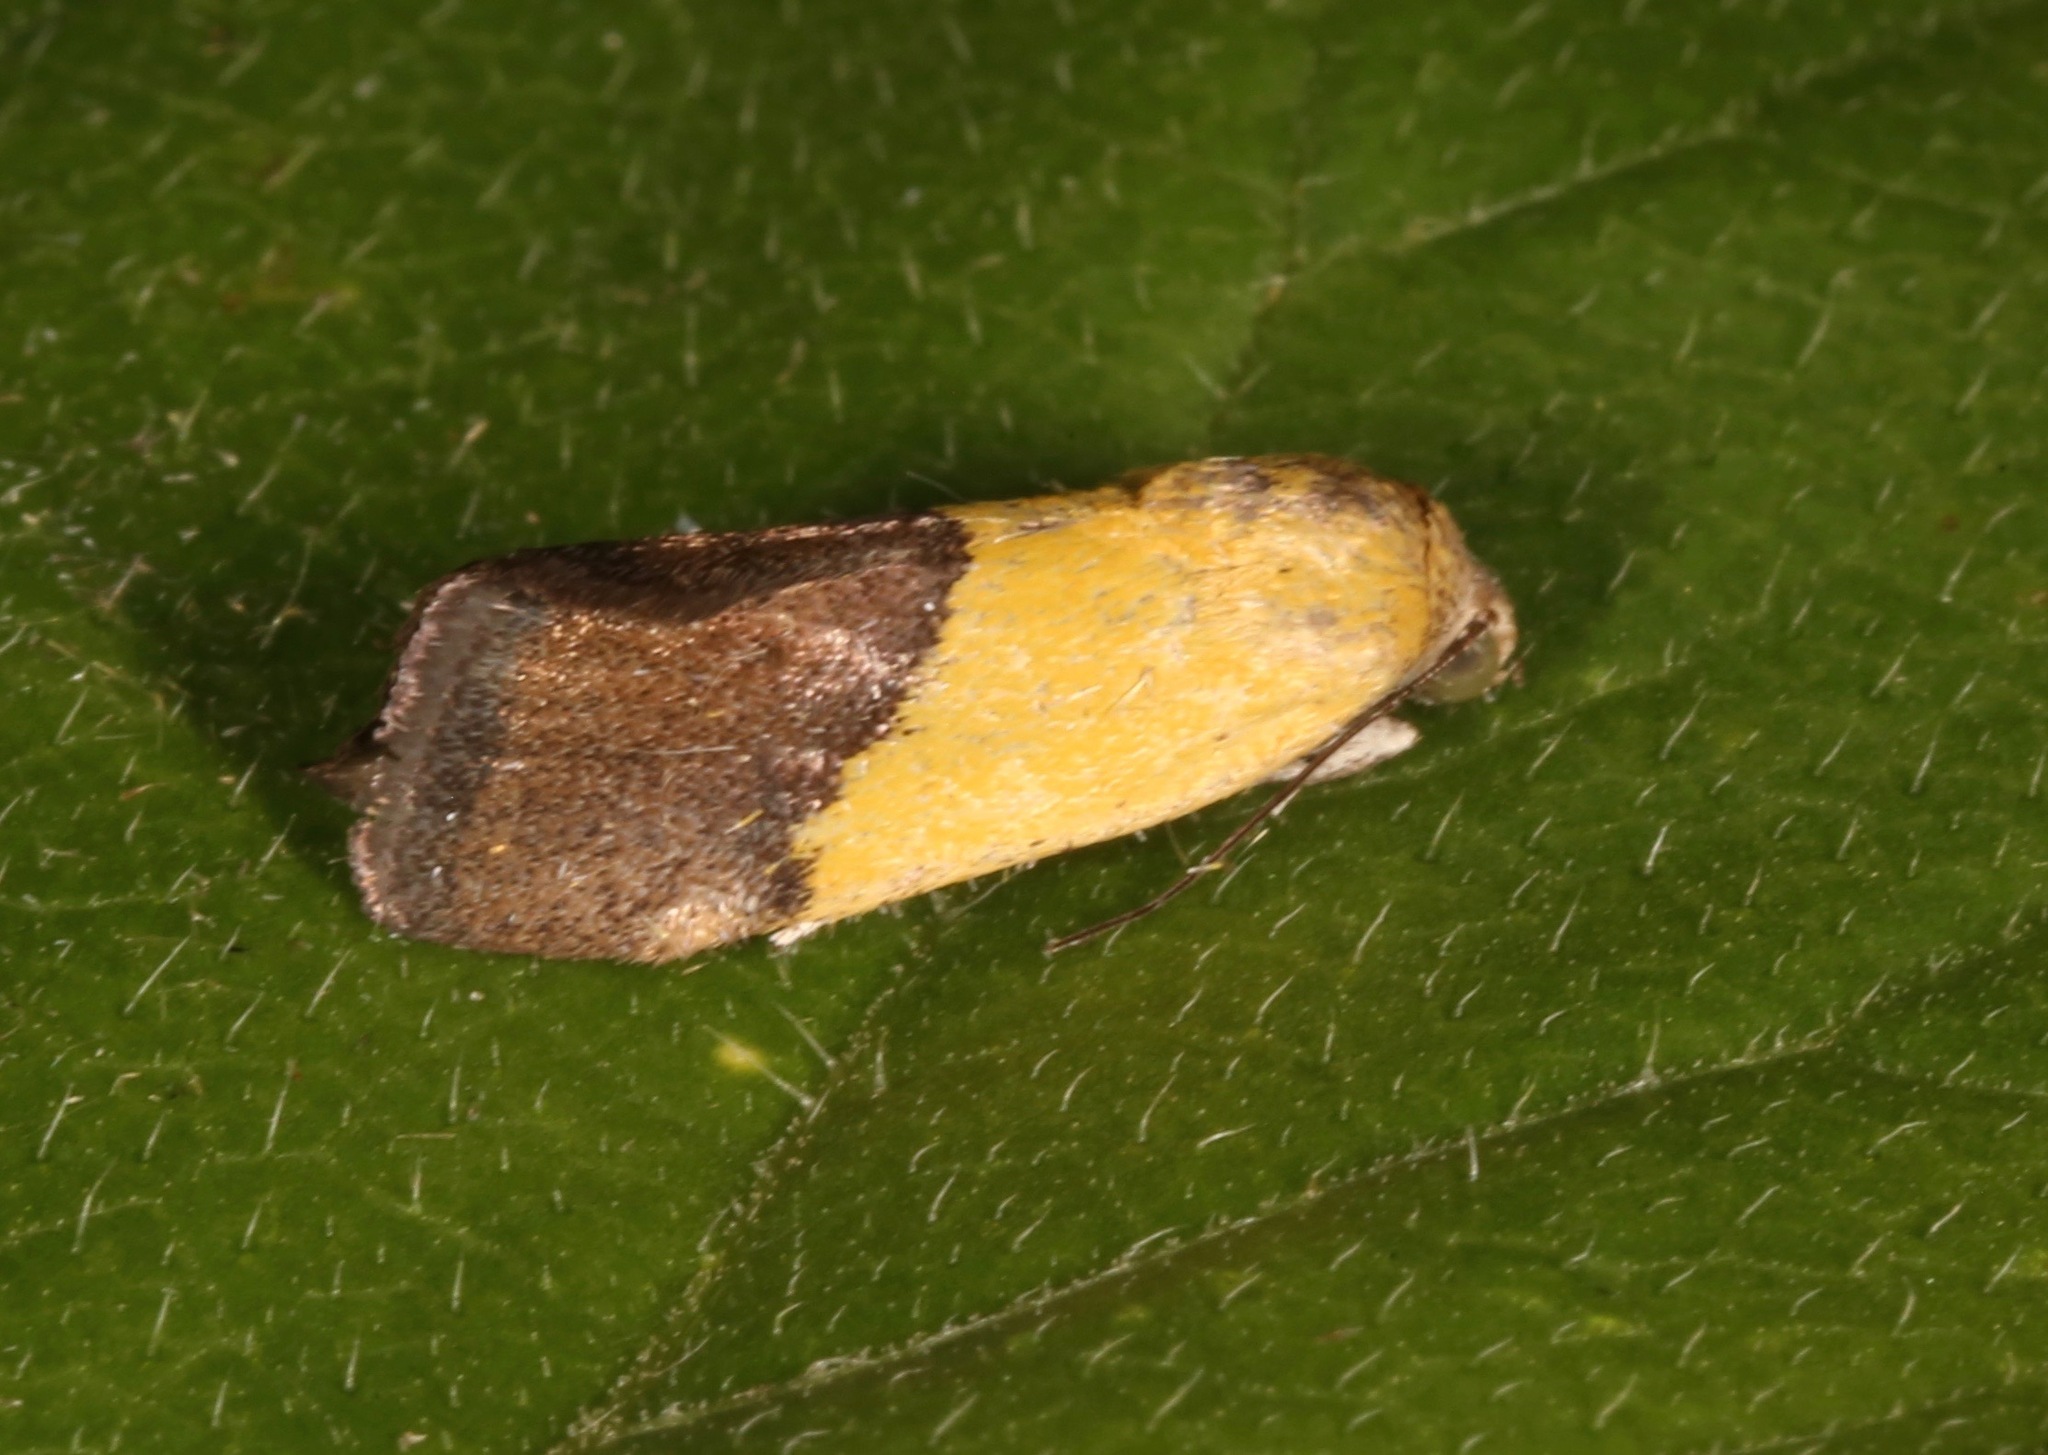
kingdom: Animalia
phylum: Arthropoda
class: Insecta
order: Lepidoptera
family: Noctuidae
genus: Acontia
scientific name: Acontia semiflava
